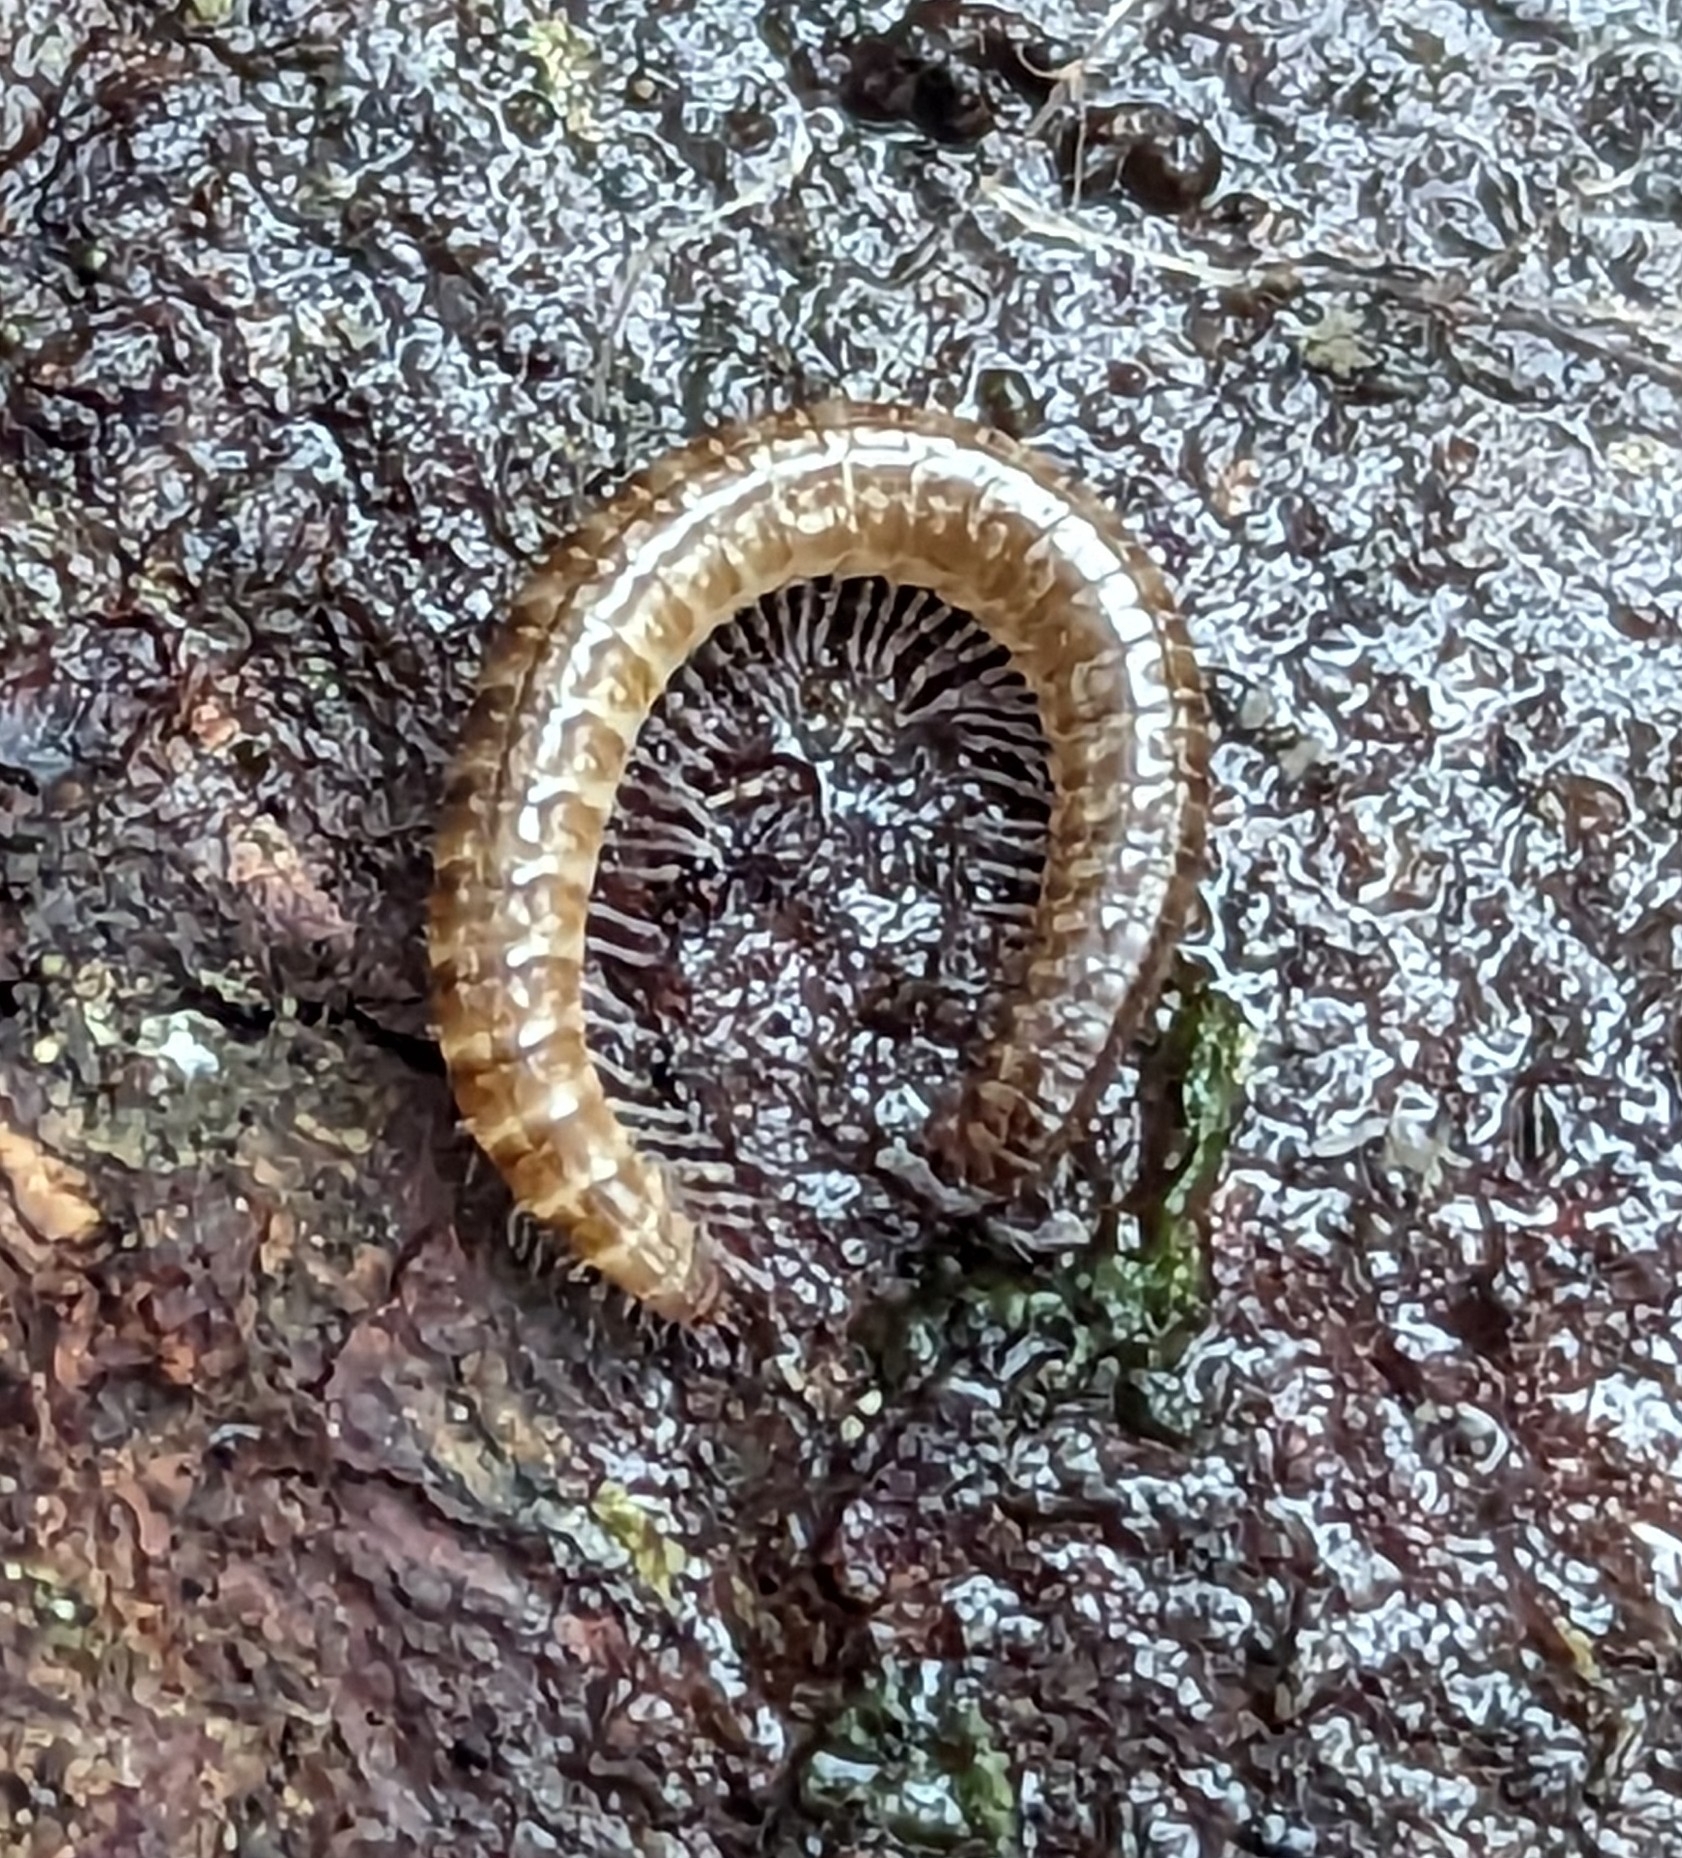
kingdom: Animalia
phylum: Arthropoda
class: Diplopoda
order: Chordeumatida
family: Chordeumatidae
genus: Chordeuma
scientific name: Chordeuma
